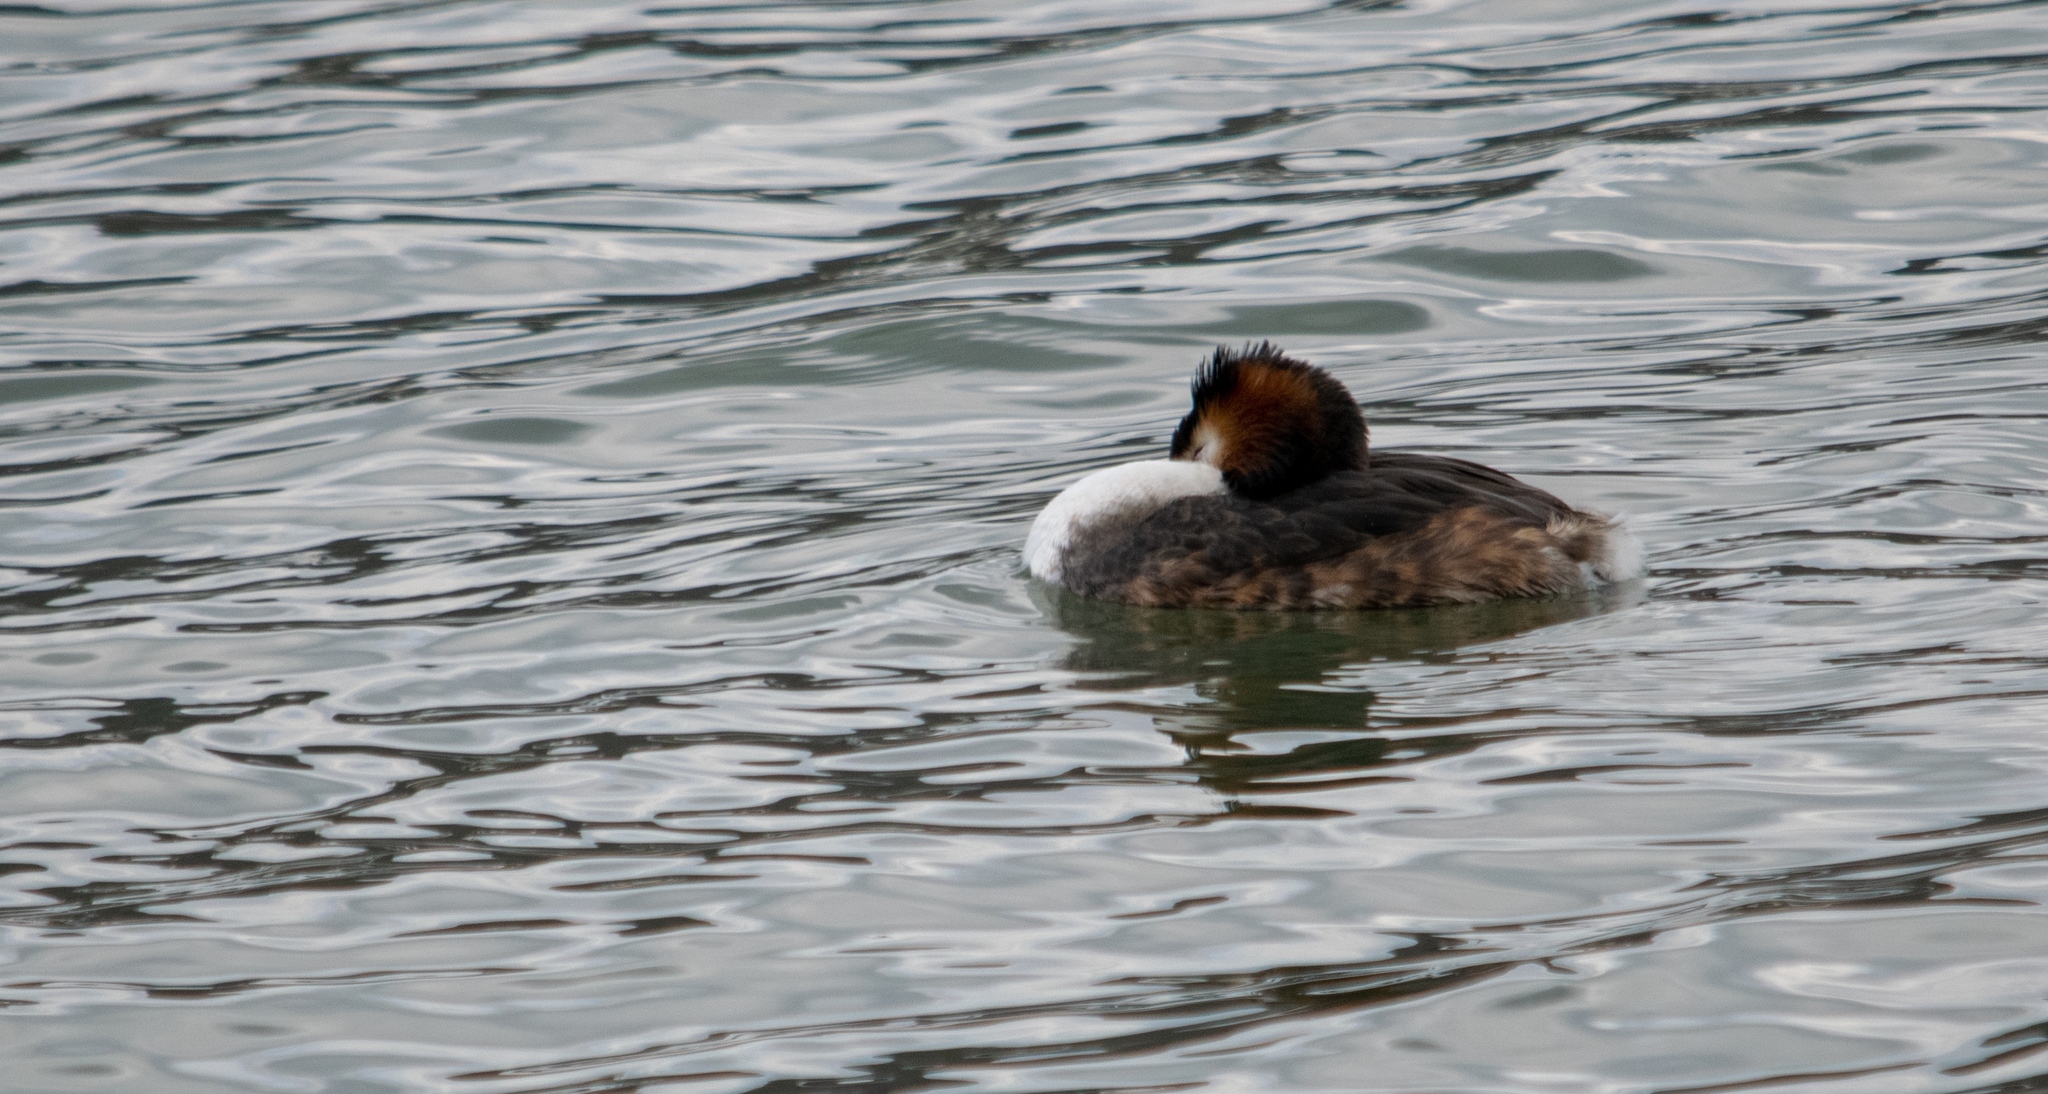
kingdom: Animalia
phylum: Chordata
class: Aves
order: Podicipediformes
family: Podicipedidae
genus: Podiceps
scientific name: Podiceps cristatus
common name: Great crested grebe
